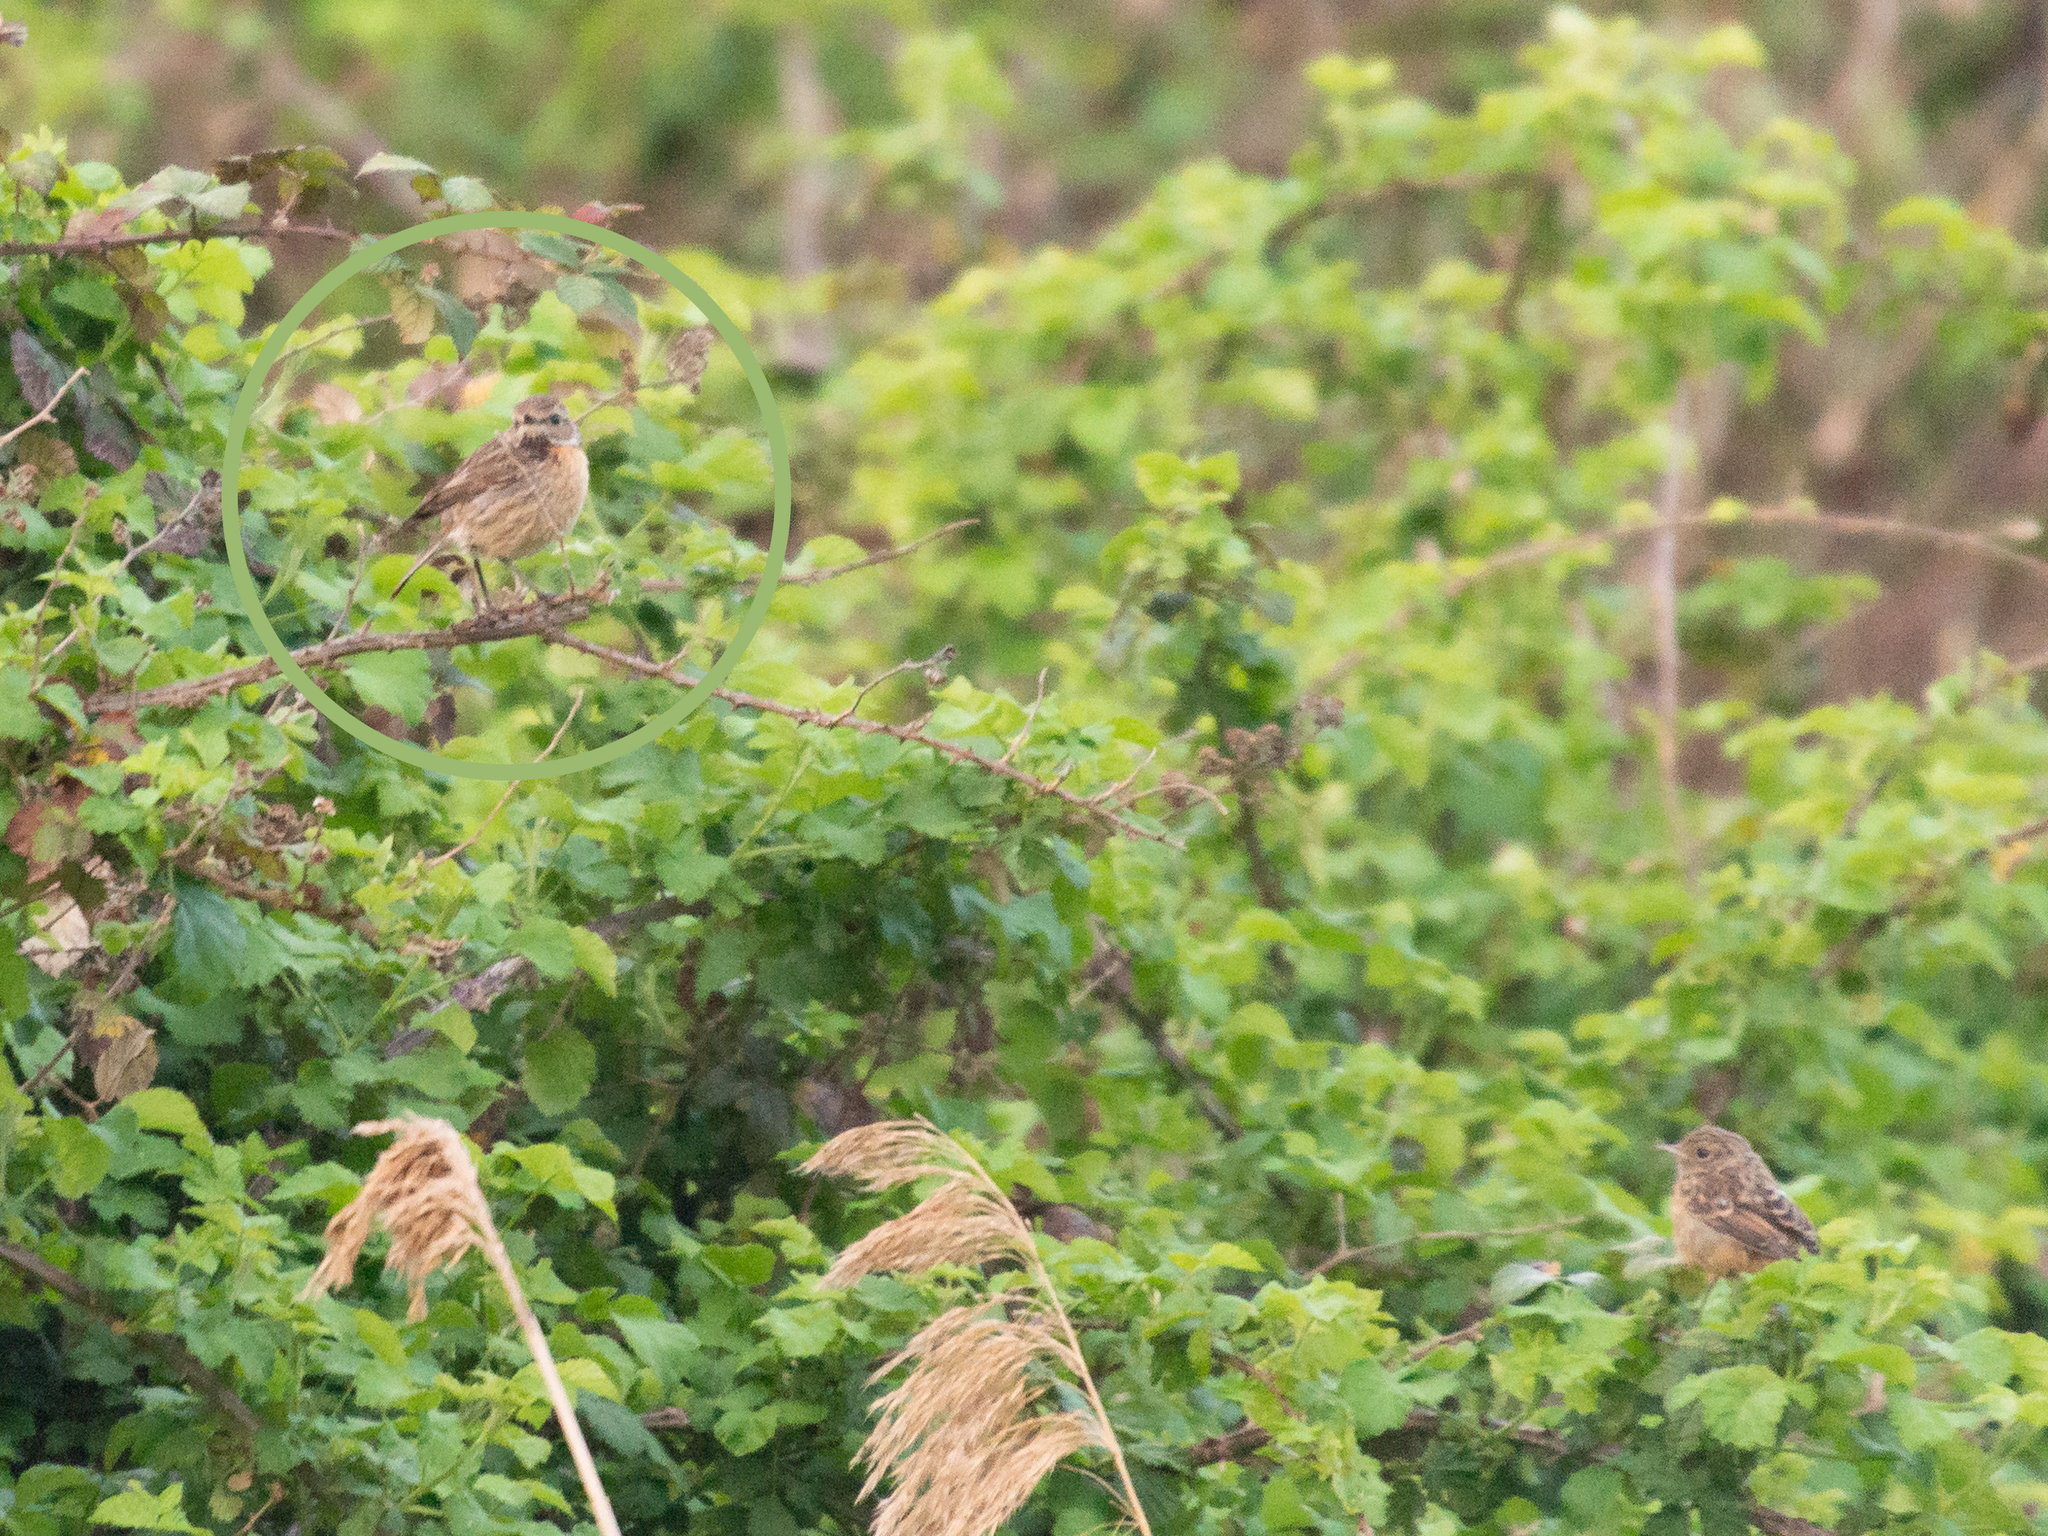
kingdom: Animalia
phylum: Chordata
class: Aves
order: Passeriformes
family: Muscicapidae
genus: Saxicola
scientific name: Saxicola rubicola
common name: European stonechat
